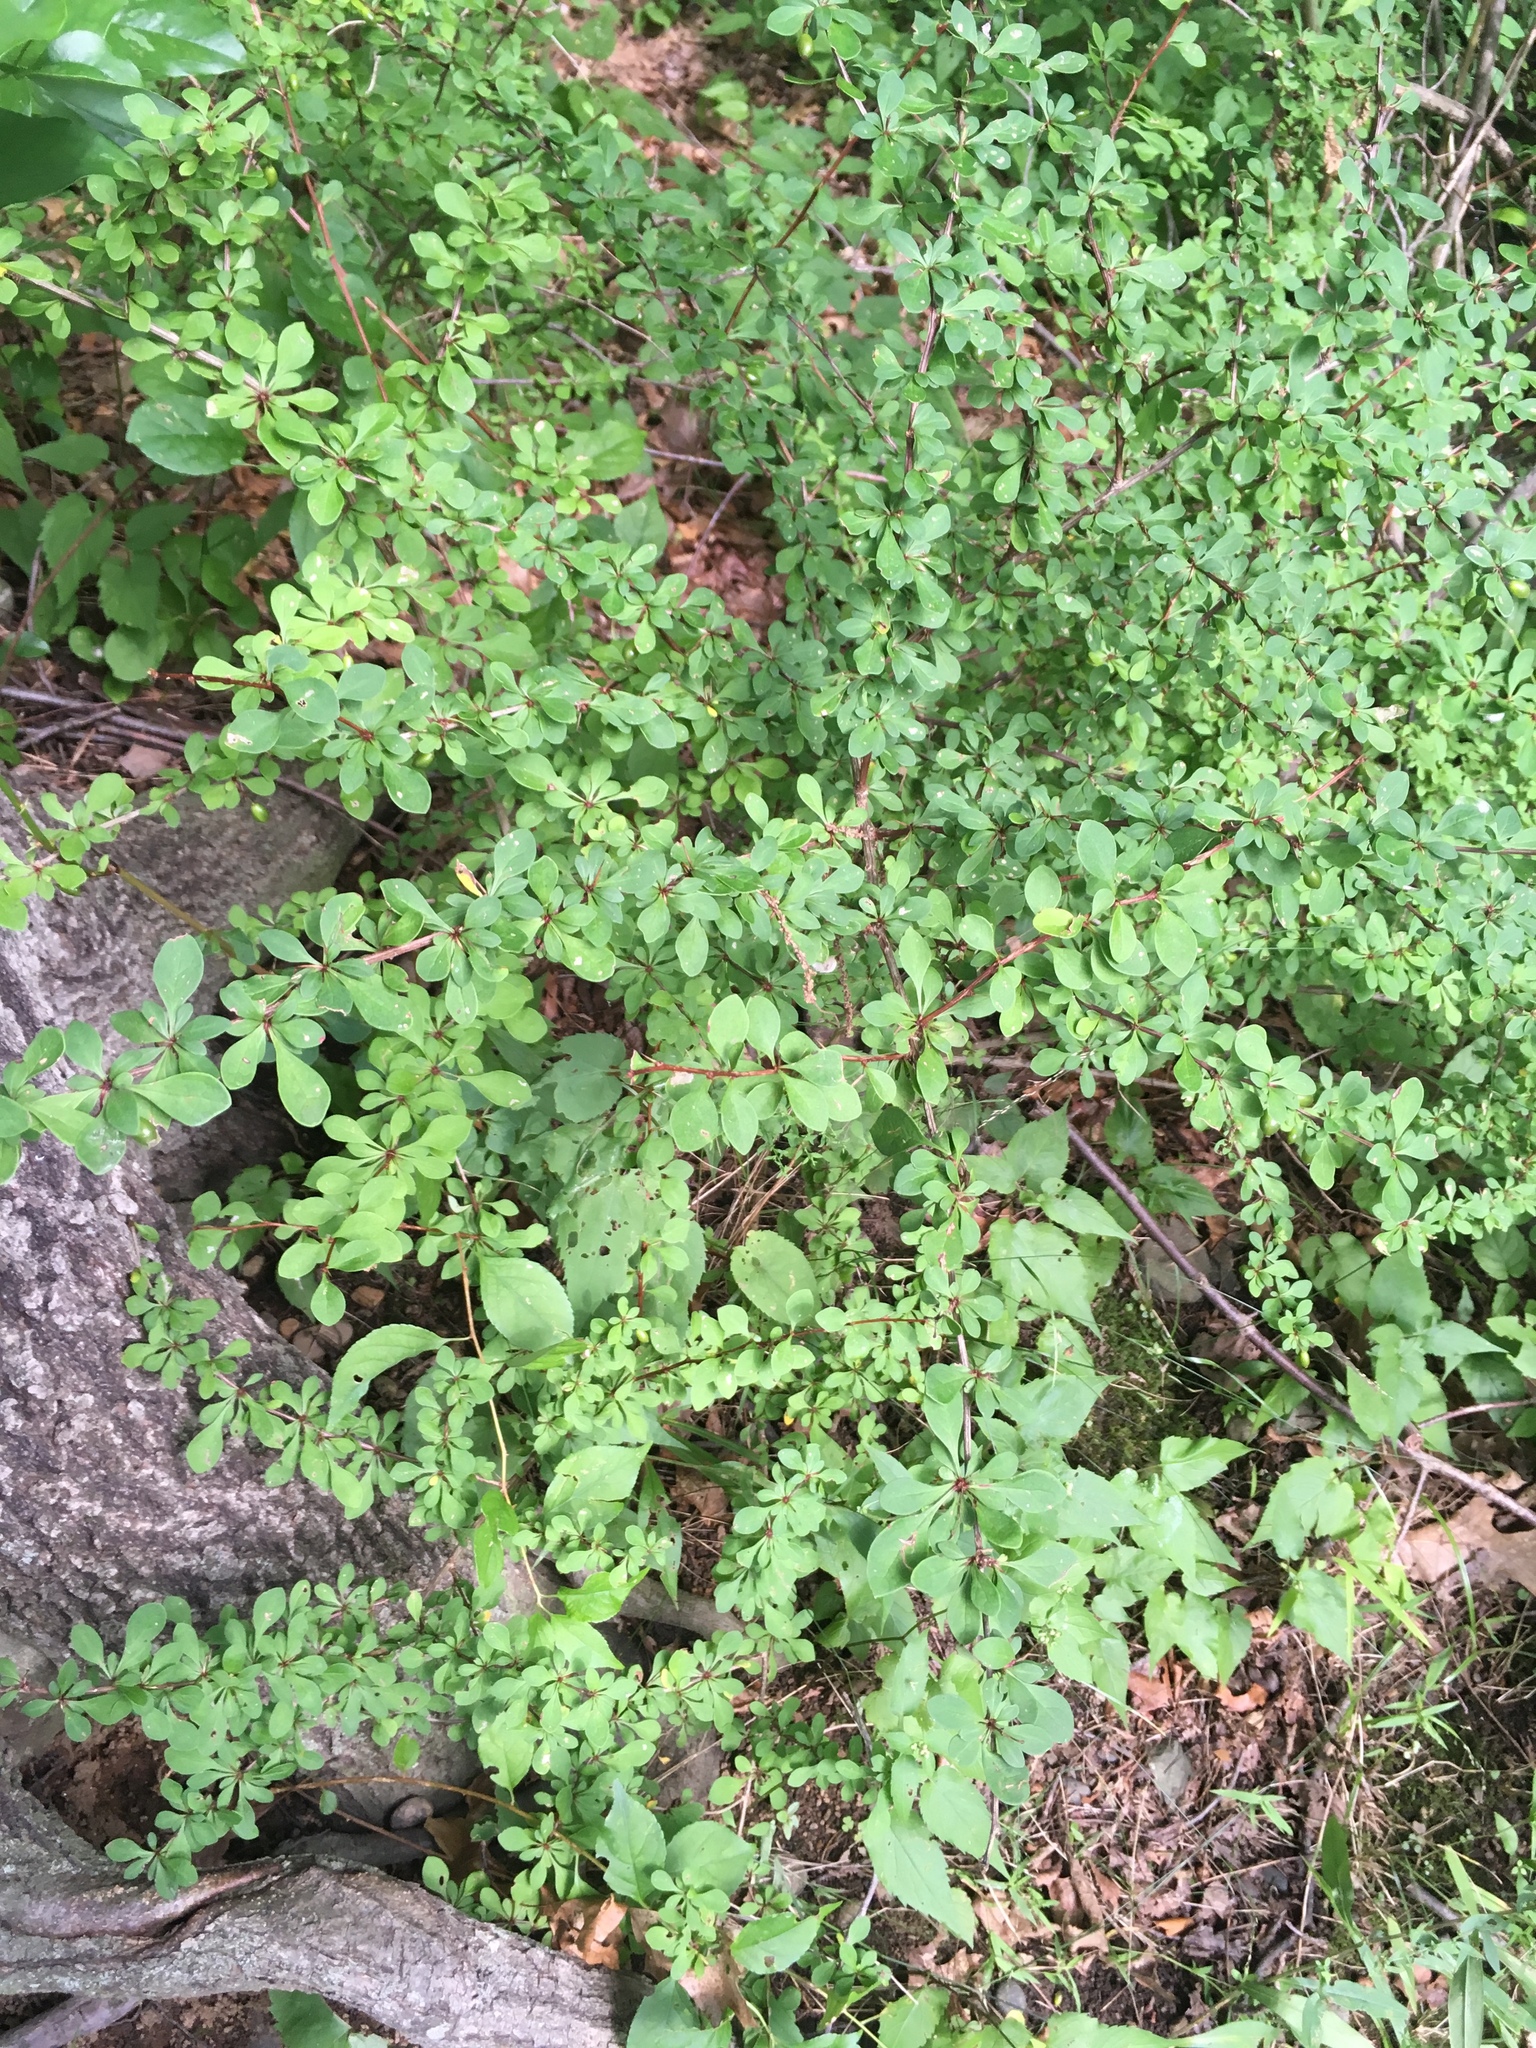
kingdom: Plantae
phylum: Tracheophyta
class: Magnoliopsida
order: Ranunculales
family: Berberidaceae
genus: Berberis
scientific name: Berberis thunbergii
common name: Japanese barberry
